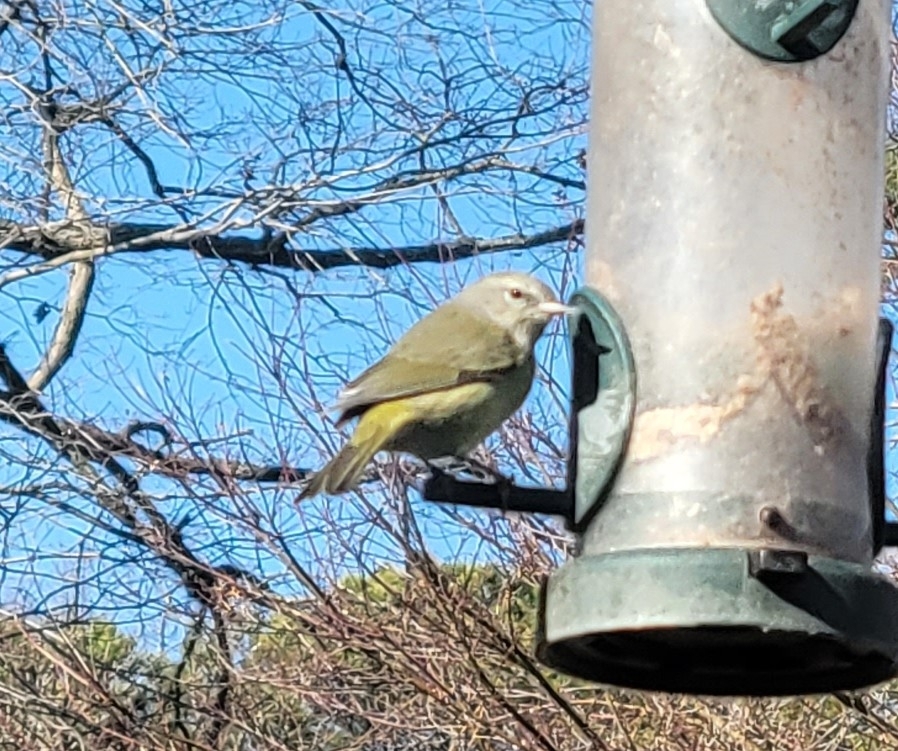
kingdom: Animalia
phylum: Chordata
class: Aves
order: Passeriformes
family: Parulidae
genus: Leiothlypis
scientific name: Leiothlypis celata
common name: Orange-crowned warbler
